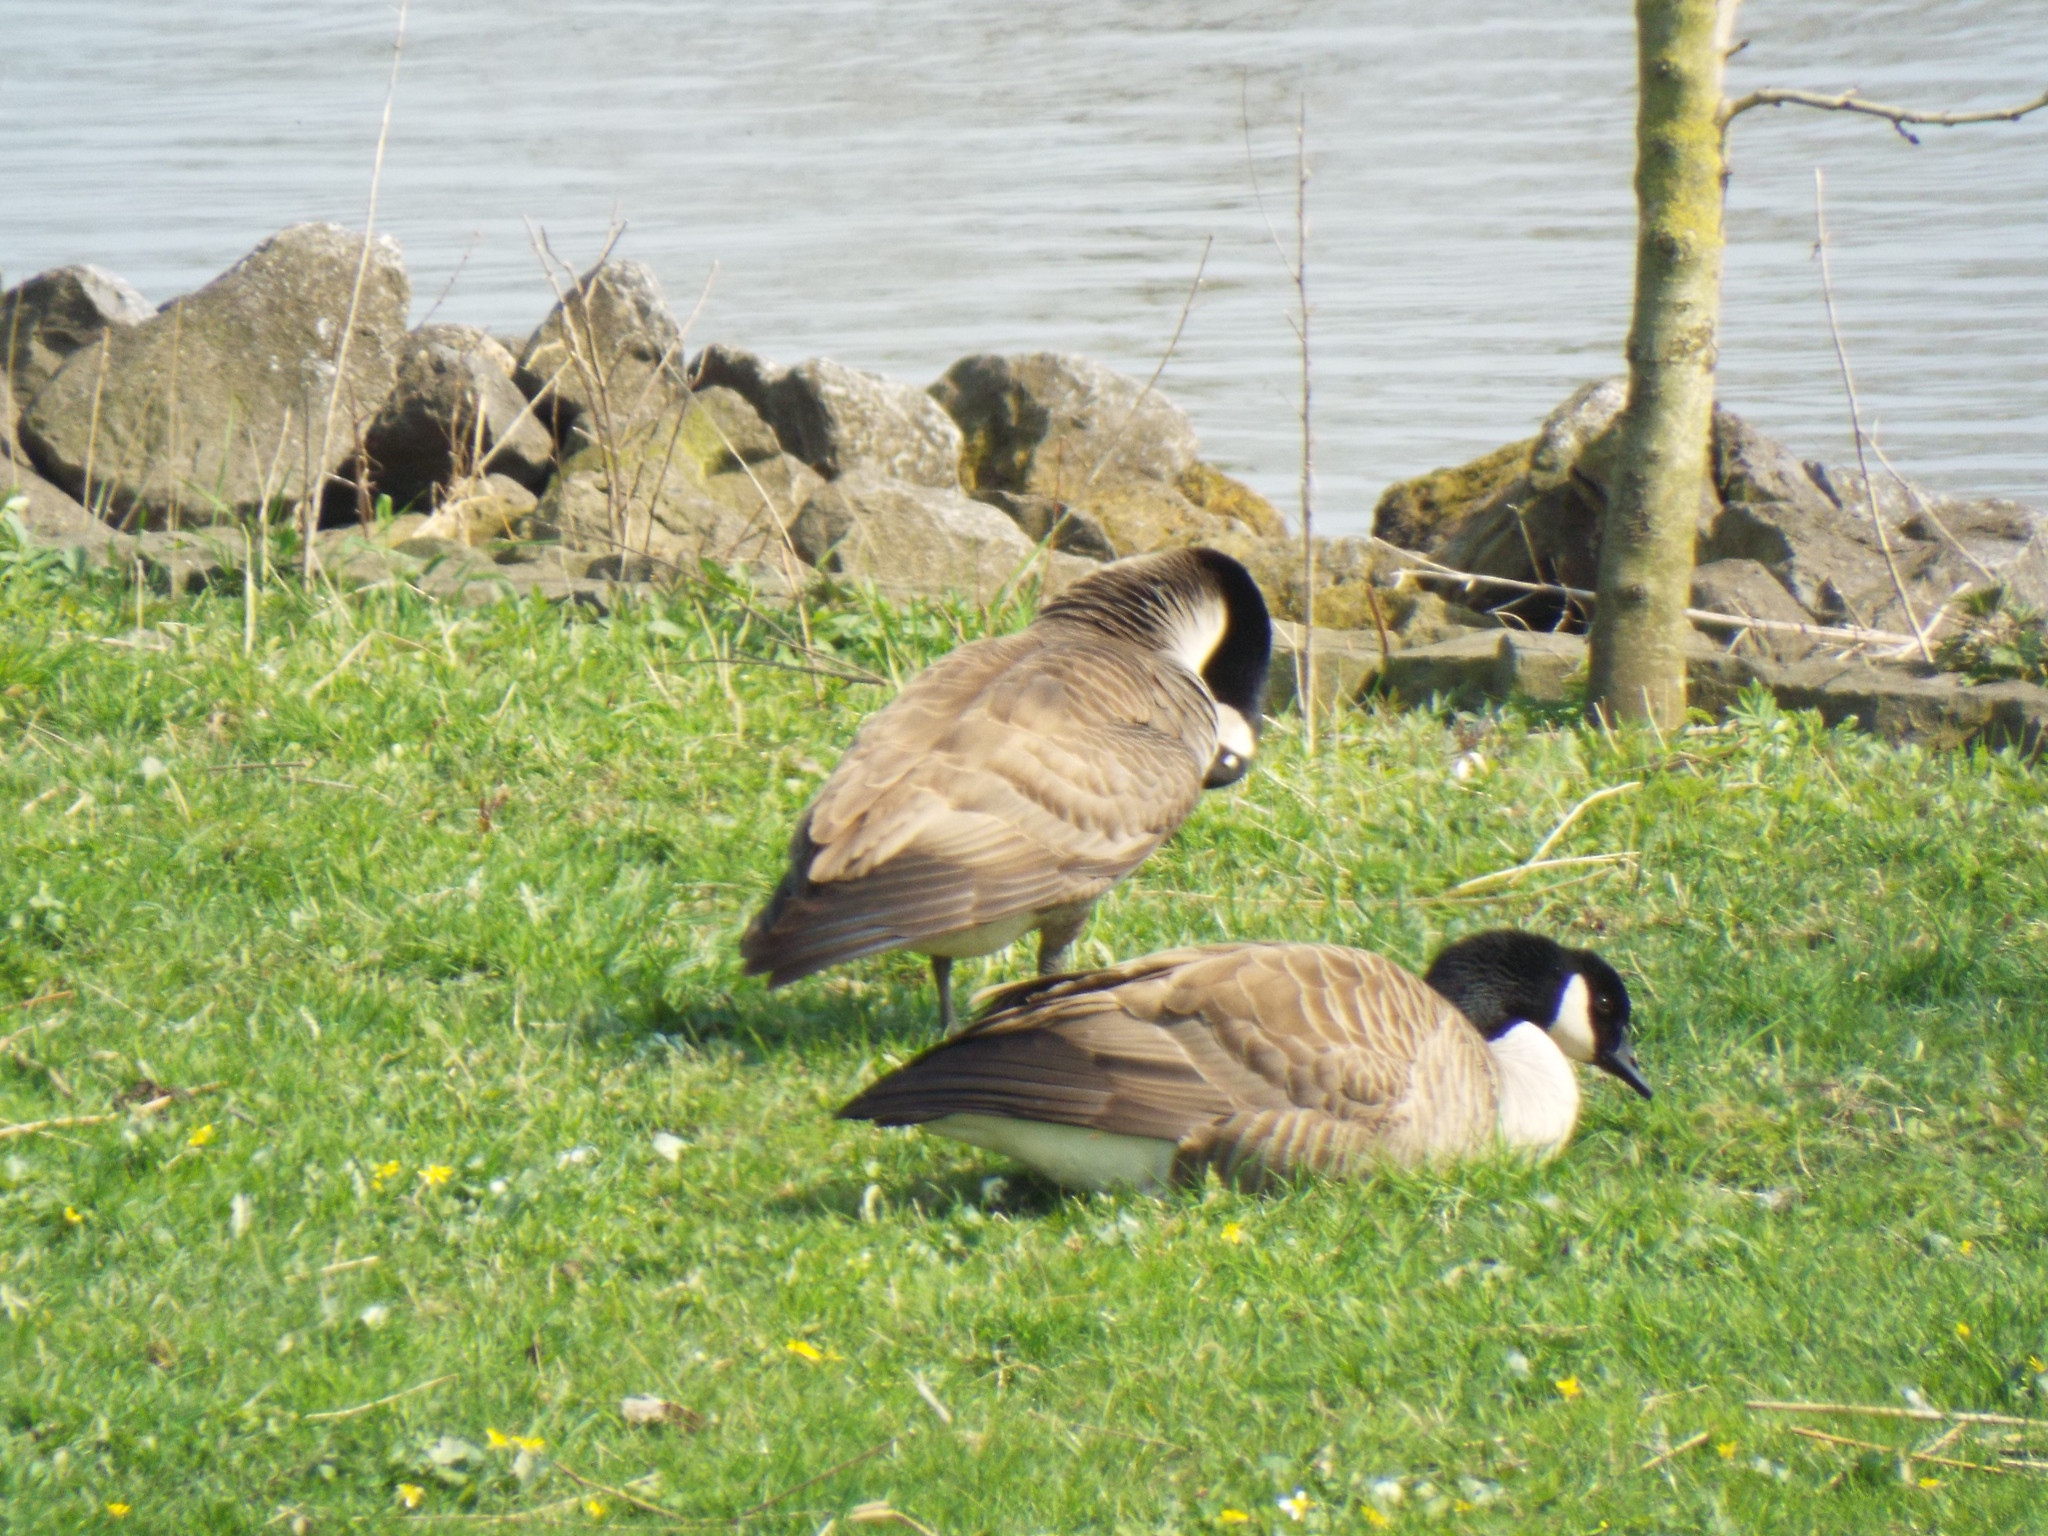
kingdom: Animalia
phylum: Chordata
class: Aves
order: Anseriformes
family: Anatidae
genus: Branta
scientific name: Branta canadensis
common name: Canada goose
